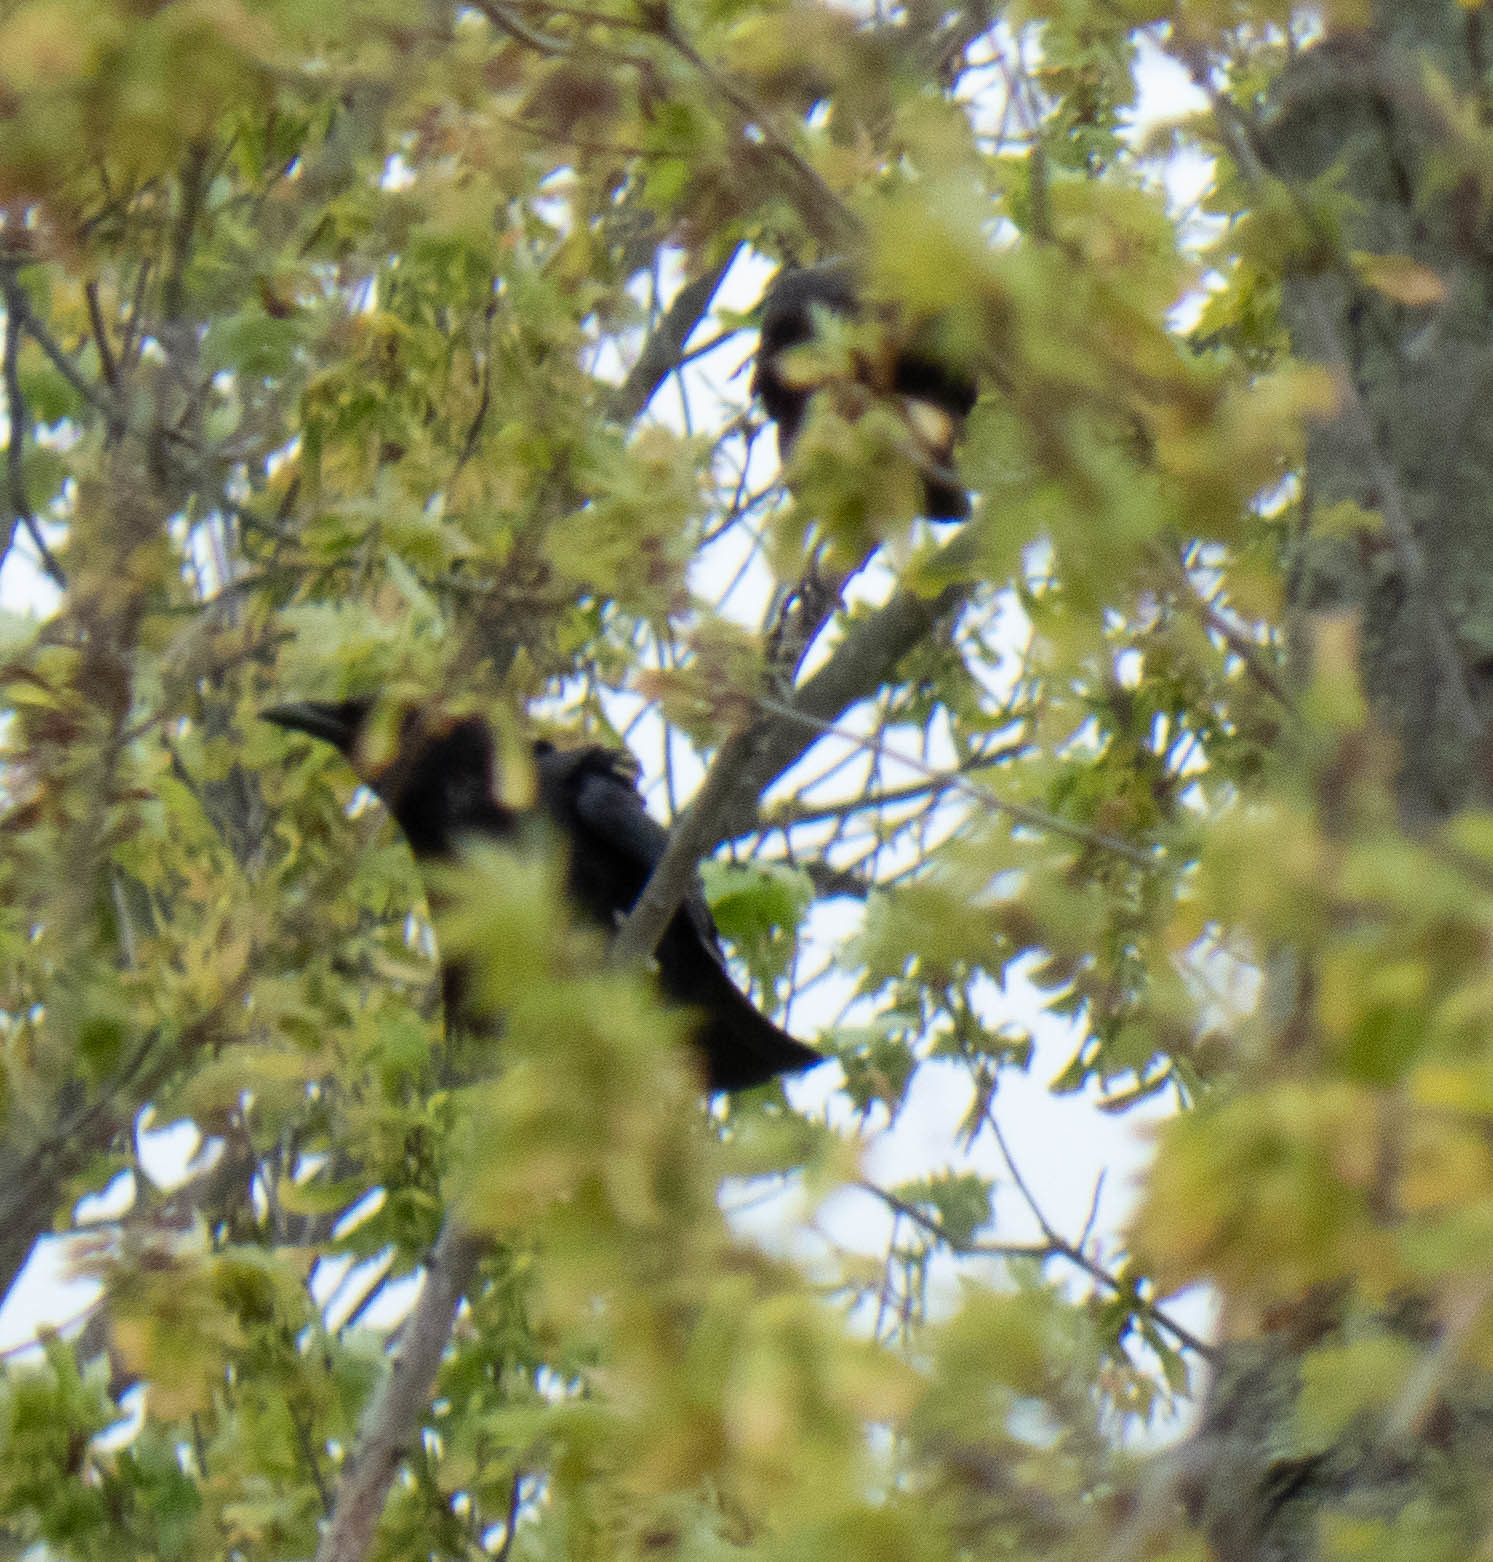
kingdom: Animalia
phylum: Chordata
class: Aves
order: Passeriformes
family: Corvidae
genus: Corvus
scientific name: Corvus brachyrhynchos
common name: American crow
